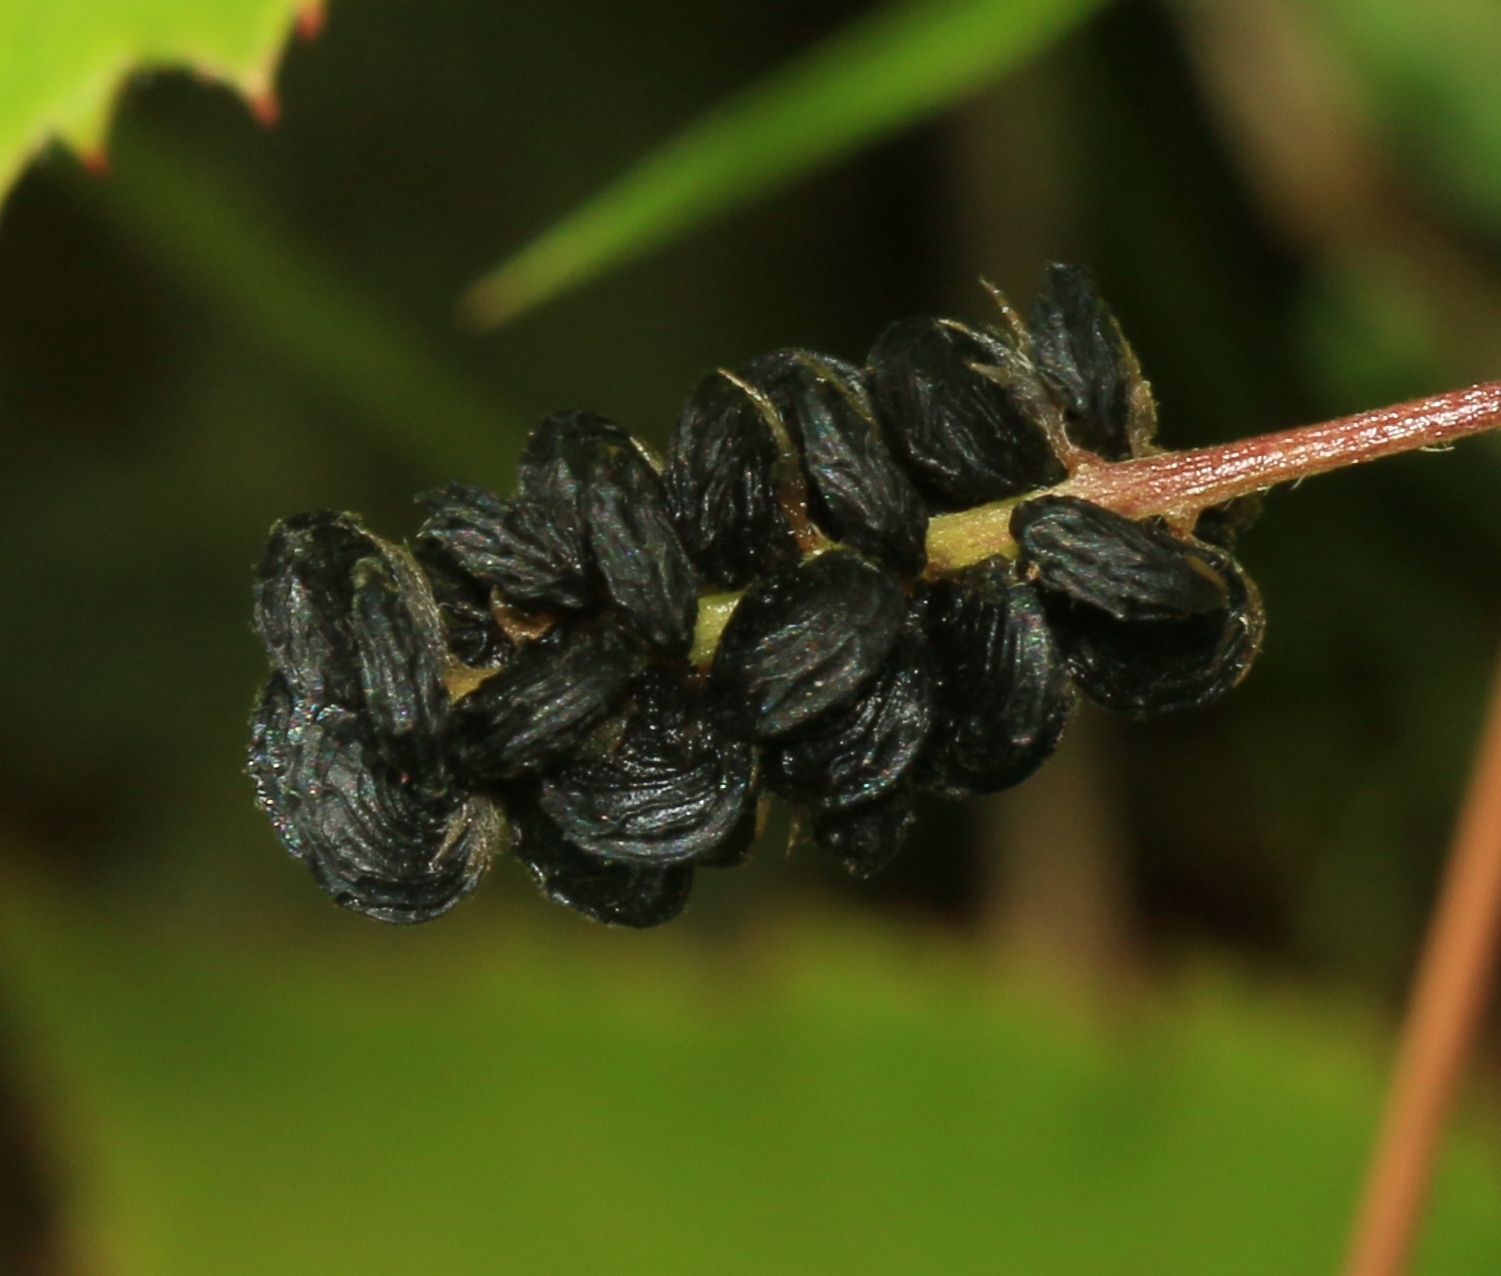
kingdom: Plantae
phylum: Tracheophyta
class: Magnoliopsida
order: Fabales
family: Fabaceae
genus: Medicago
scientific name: Medicago lupulina
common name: Black medick
